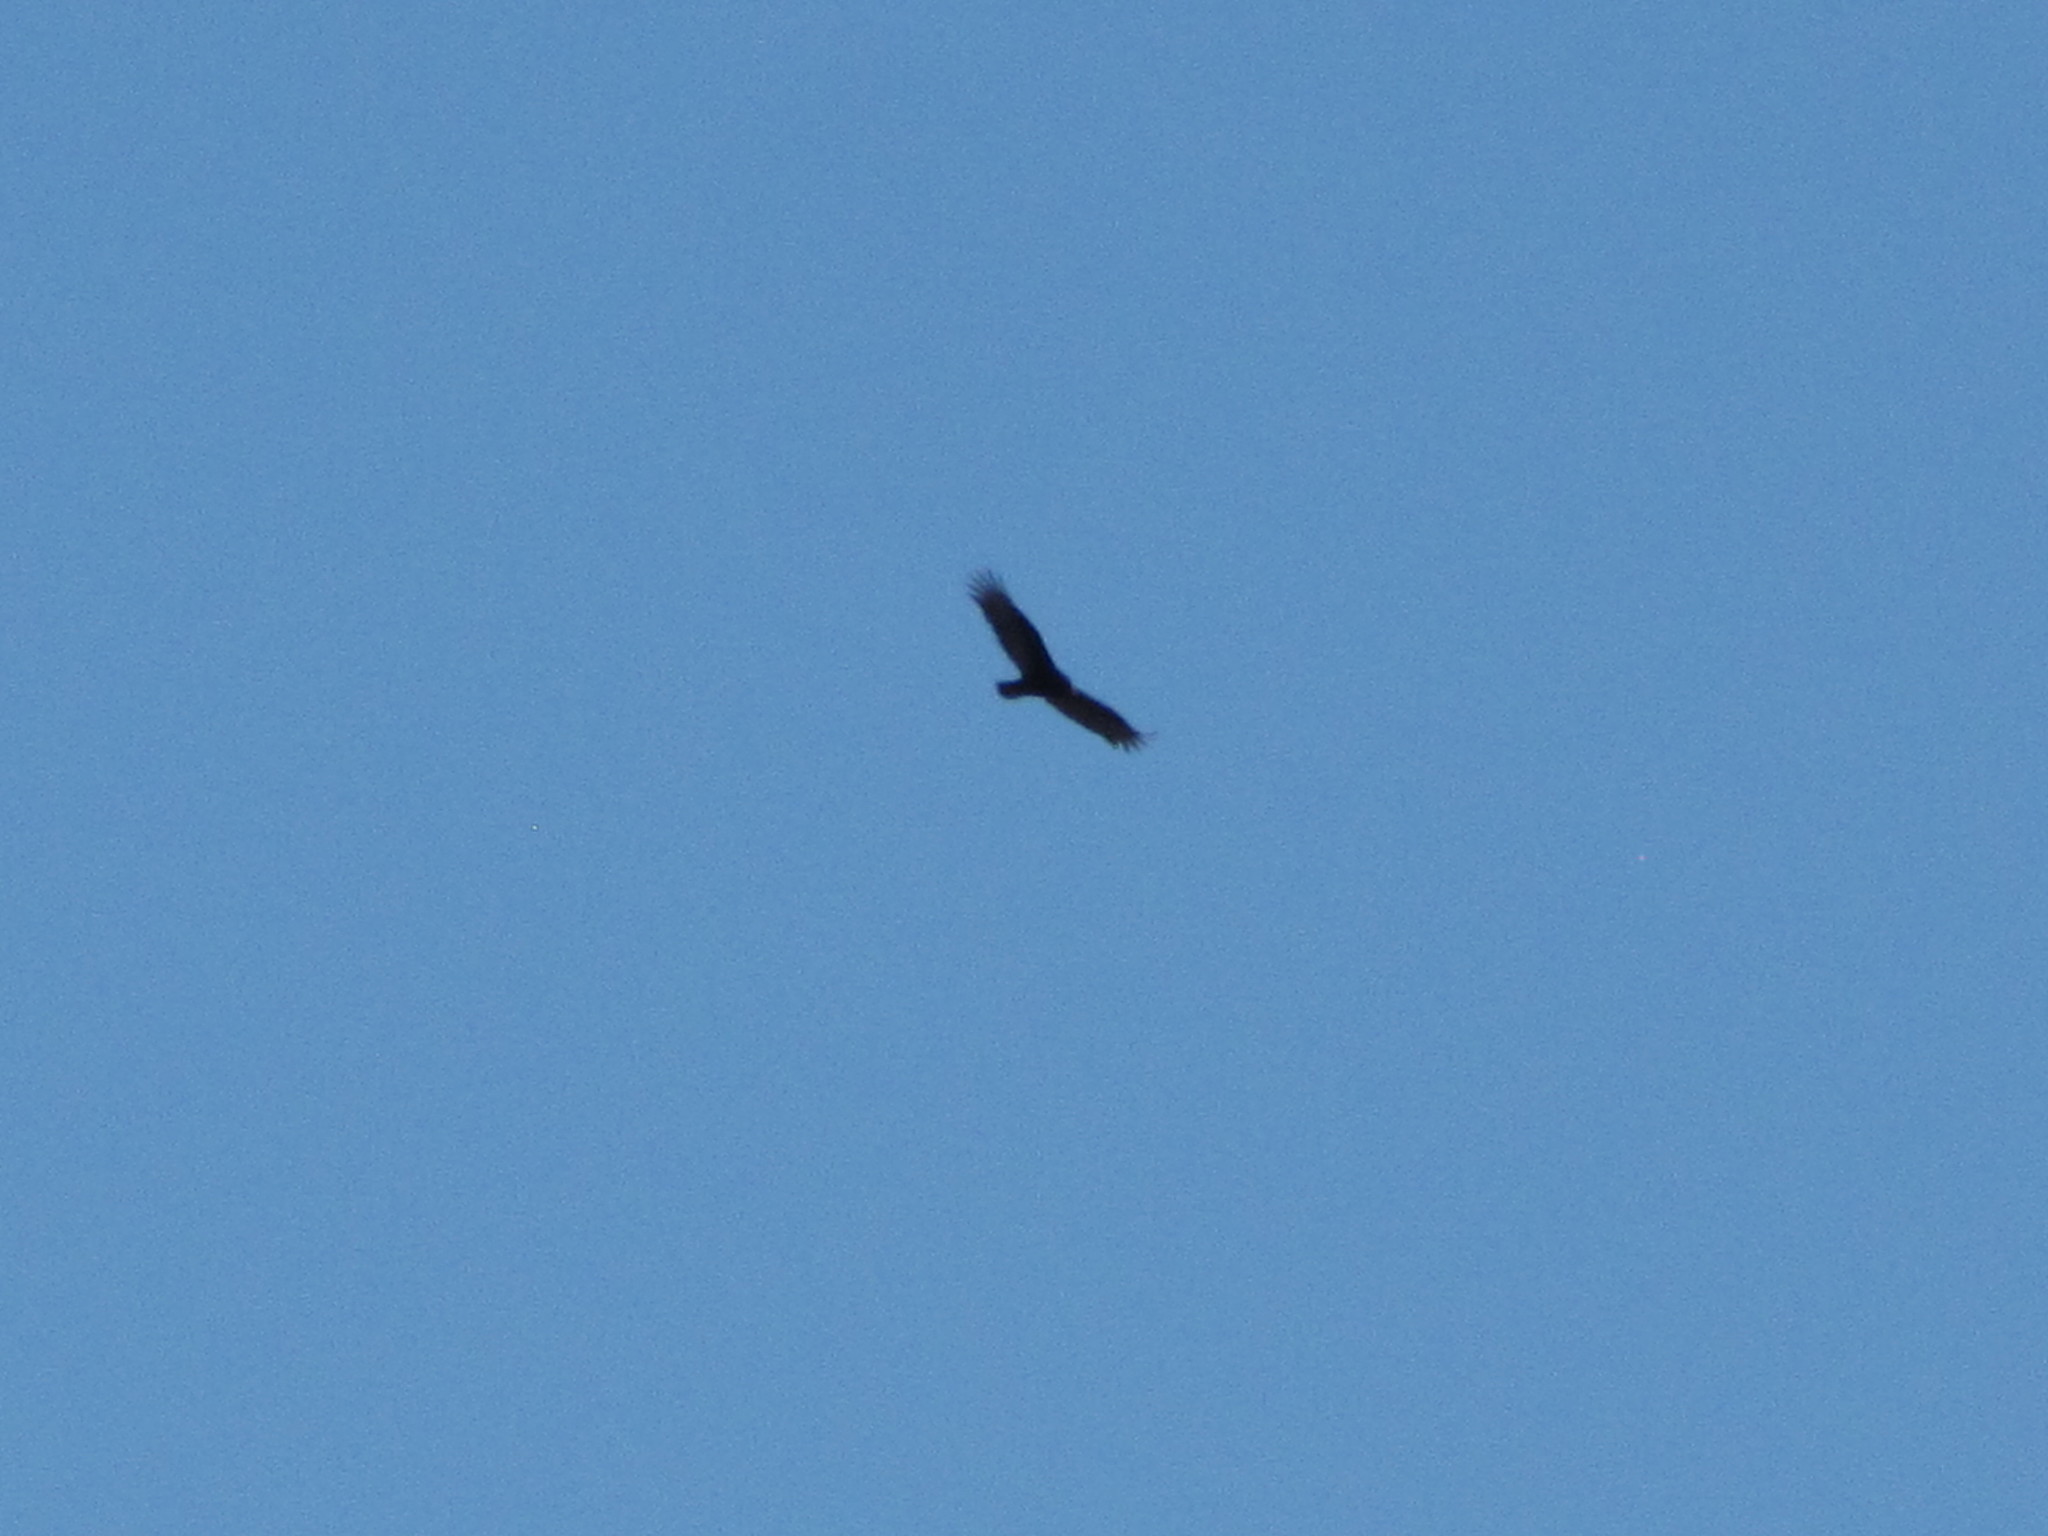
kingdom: Animalia
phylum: Chordata
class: Aves
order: Accipitriformes
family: Cathartidae
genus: Cathartes
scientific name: Cathartes aura
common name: Turkey vulture
